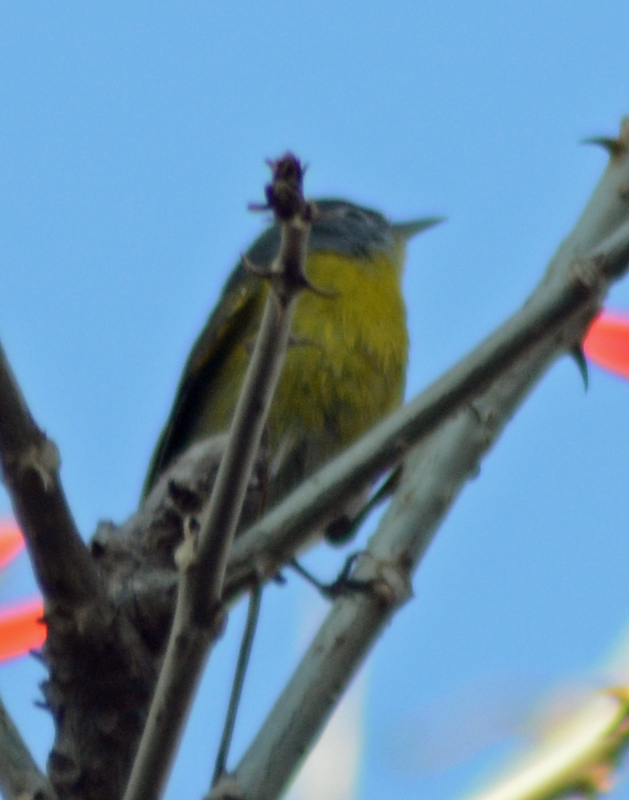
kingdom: Animalia
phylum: Chordata
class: Aves
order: Passeriformes
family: Parulidae
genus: Leiothlypis
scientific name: Leiothlypis ruficapilla
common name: Nashville warbler
